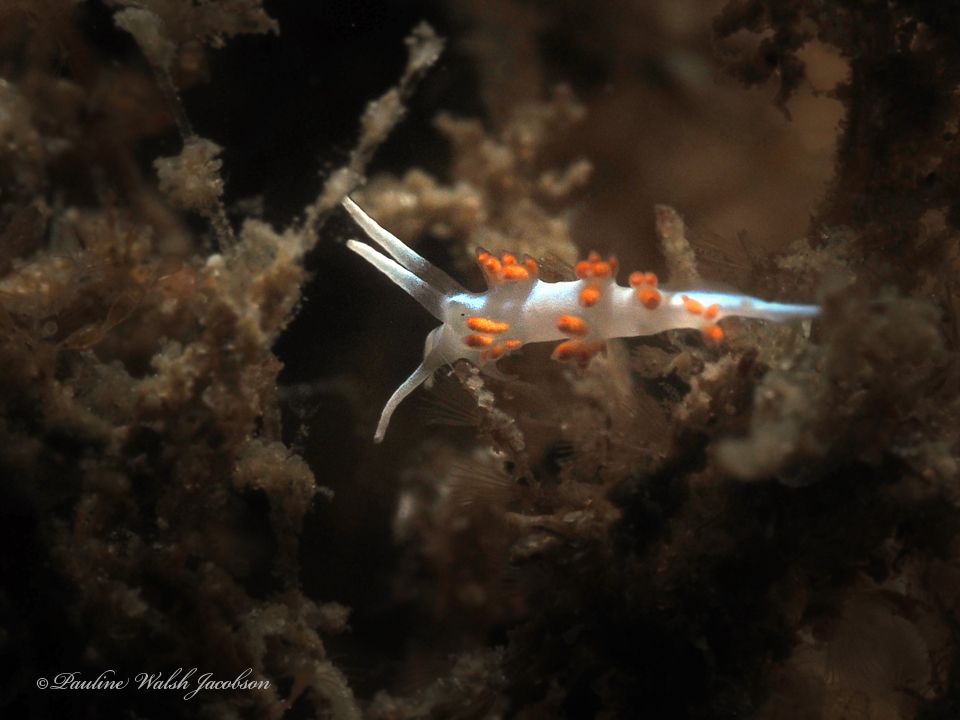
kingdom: Animalia
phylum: Mollusca
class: Gastropoda
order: Nudibranchia
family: Flabellinidae
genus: Flabellina
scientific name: Flabellina dushia
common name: Dushia flabellina
